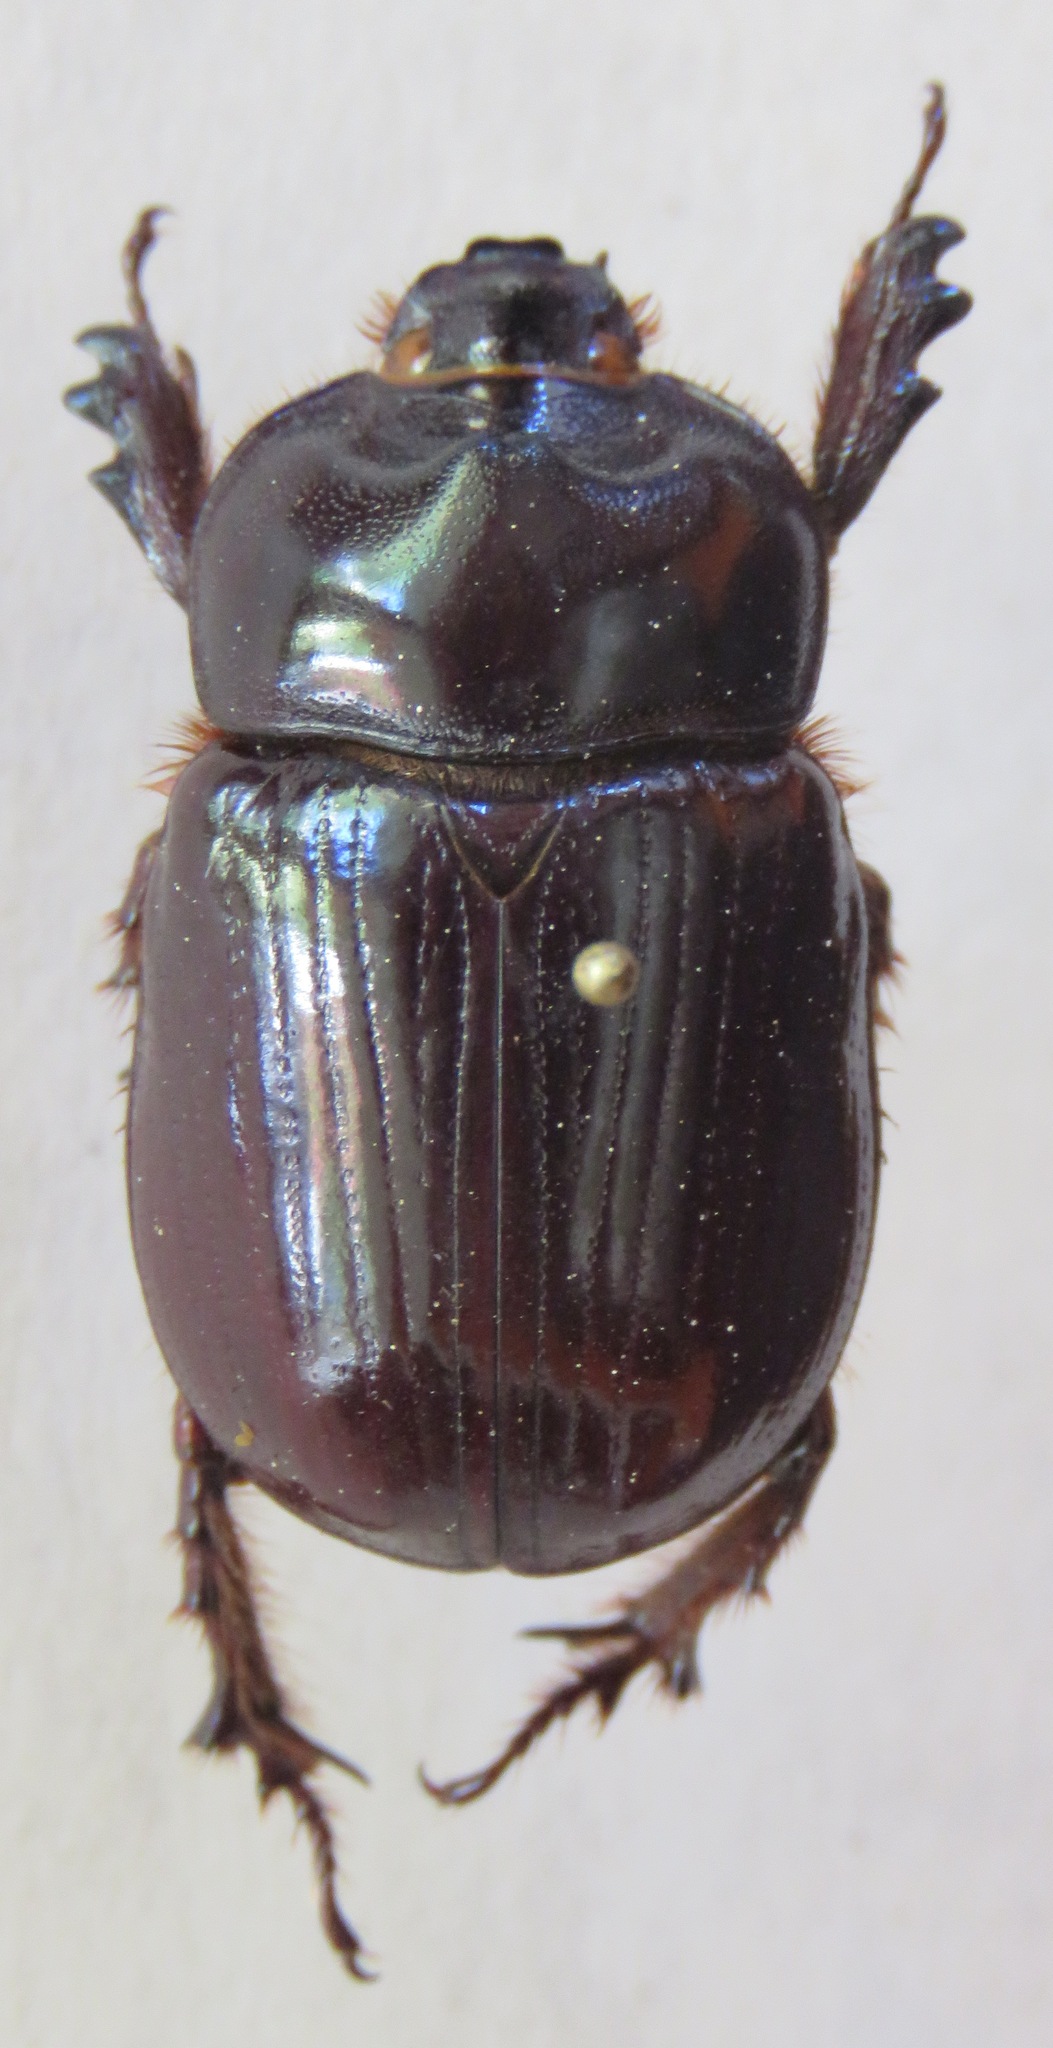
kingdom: Animalia
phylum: Arthropoda
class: Insecta
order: Coleoptera
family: Scarabaeidae
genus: Xyloryctes
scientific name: Xyloryctes lobicollis
